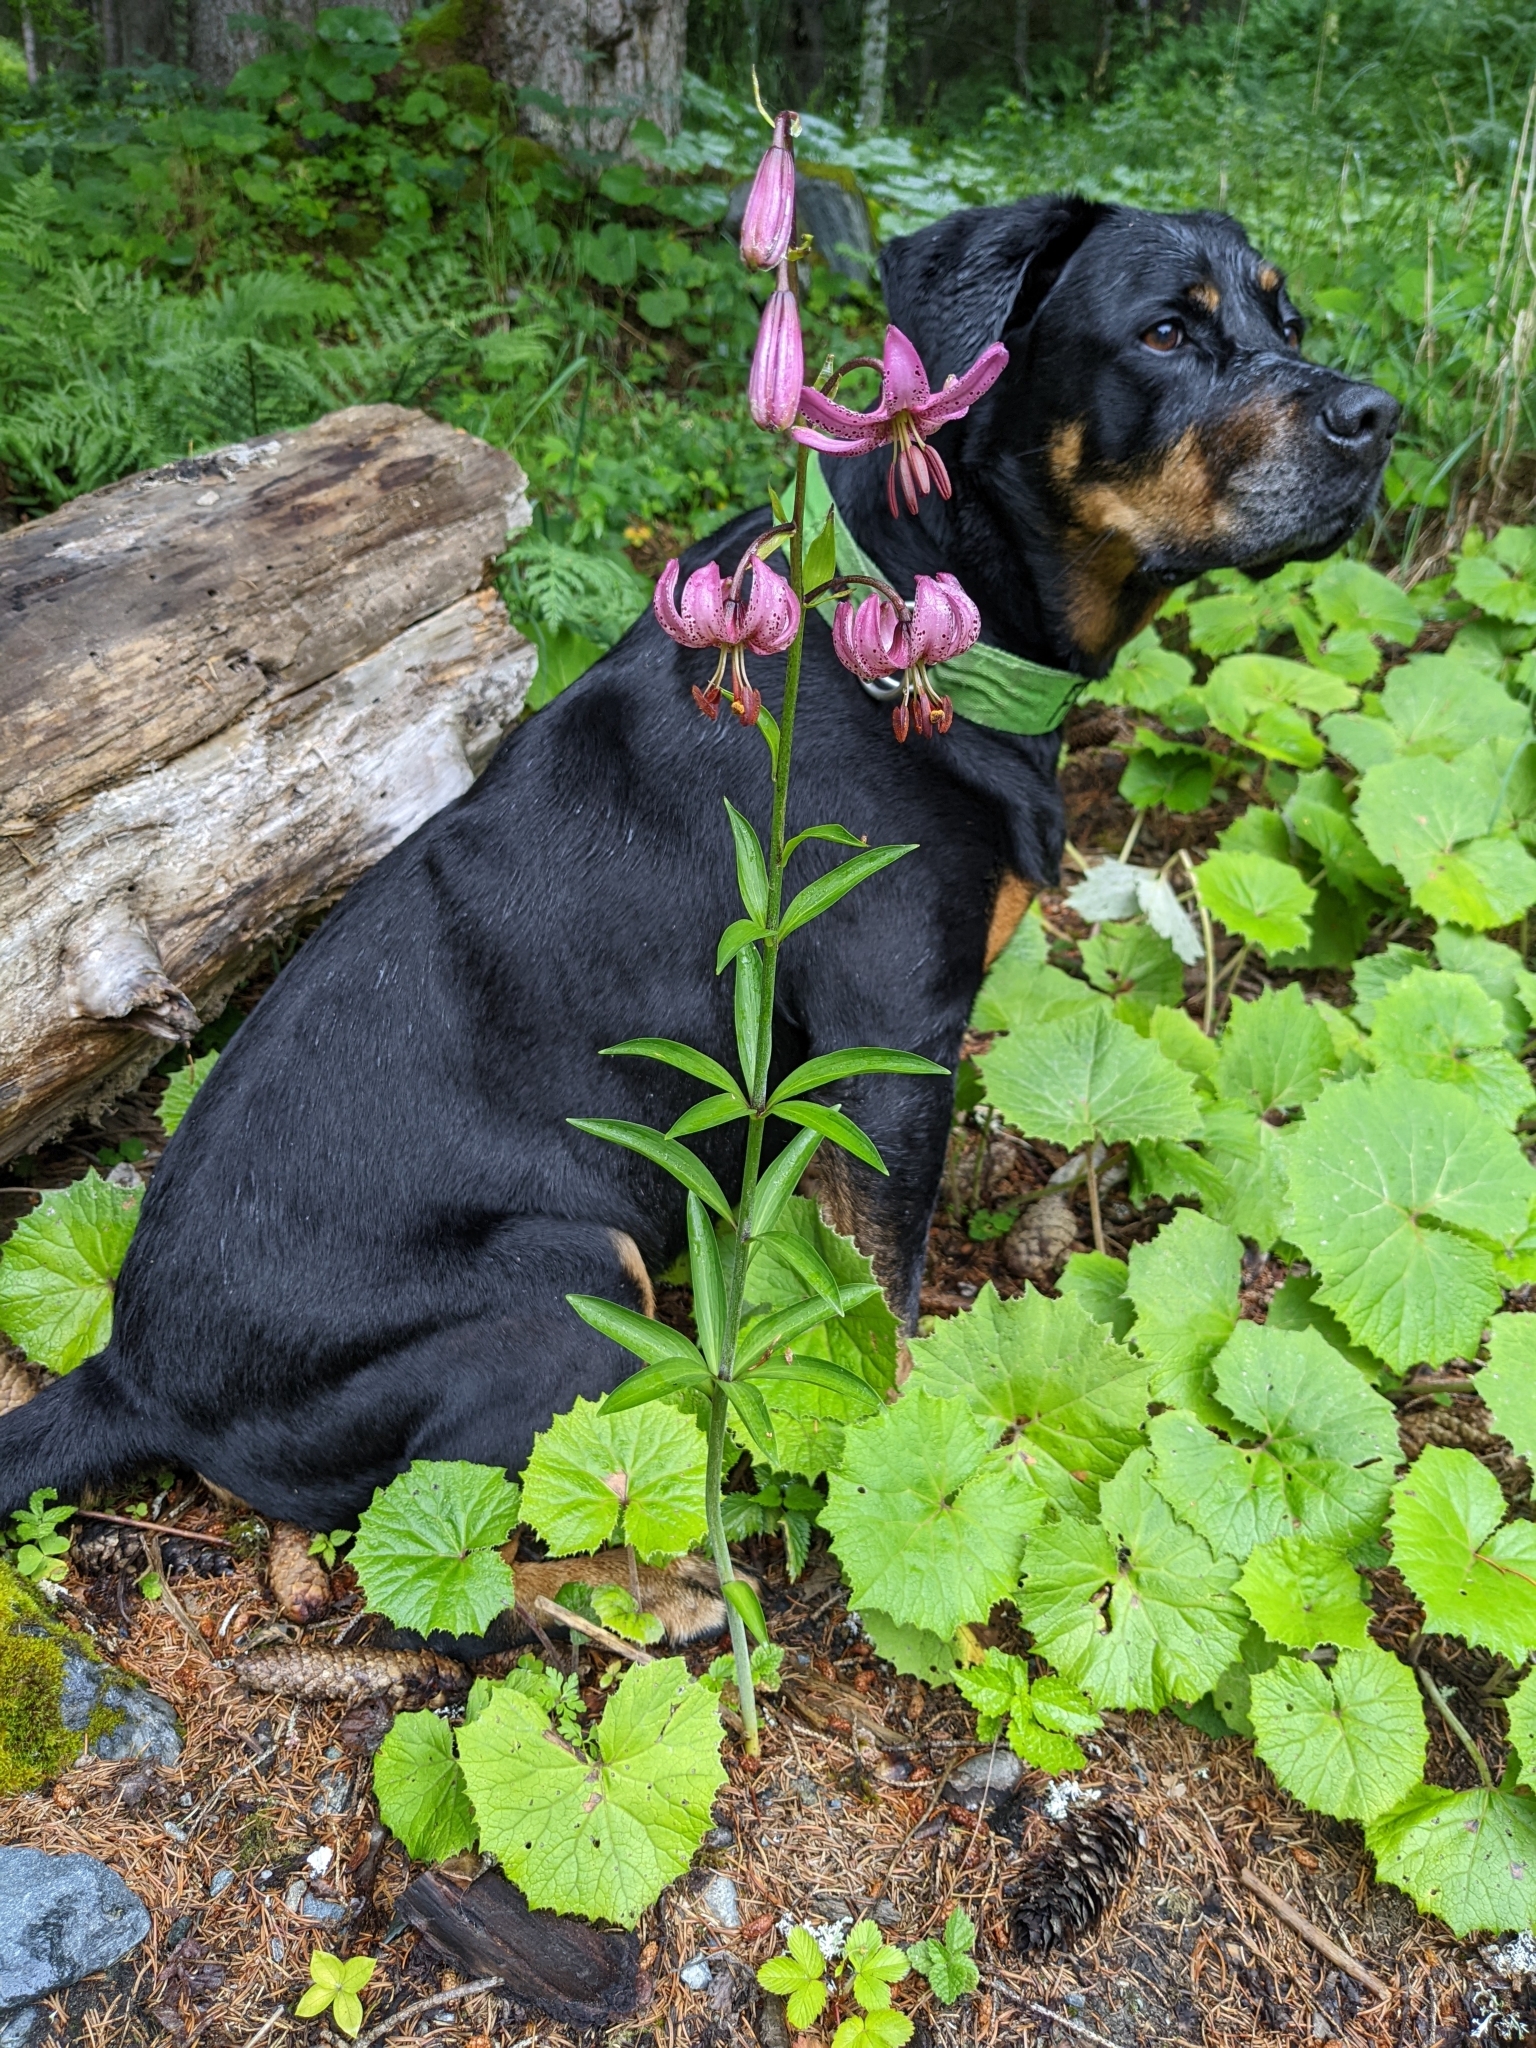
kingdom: Plantae
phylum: Tracheophyta
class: Liliopsida
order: Liliales
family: Liliaceae
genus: Lilium
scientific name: Lilium martagon
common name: Martagon lily
